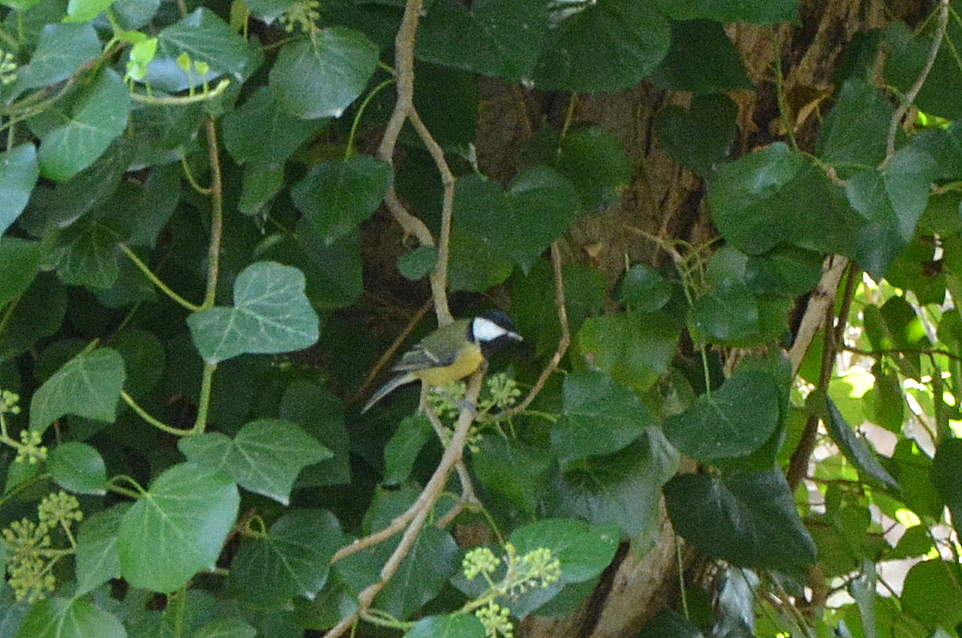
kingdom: Animalia
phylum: Chordata
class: Aves
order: Passeriformes
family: Paridae
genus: Parus
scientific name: Parus major
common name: Great tit
